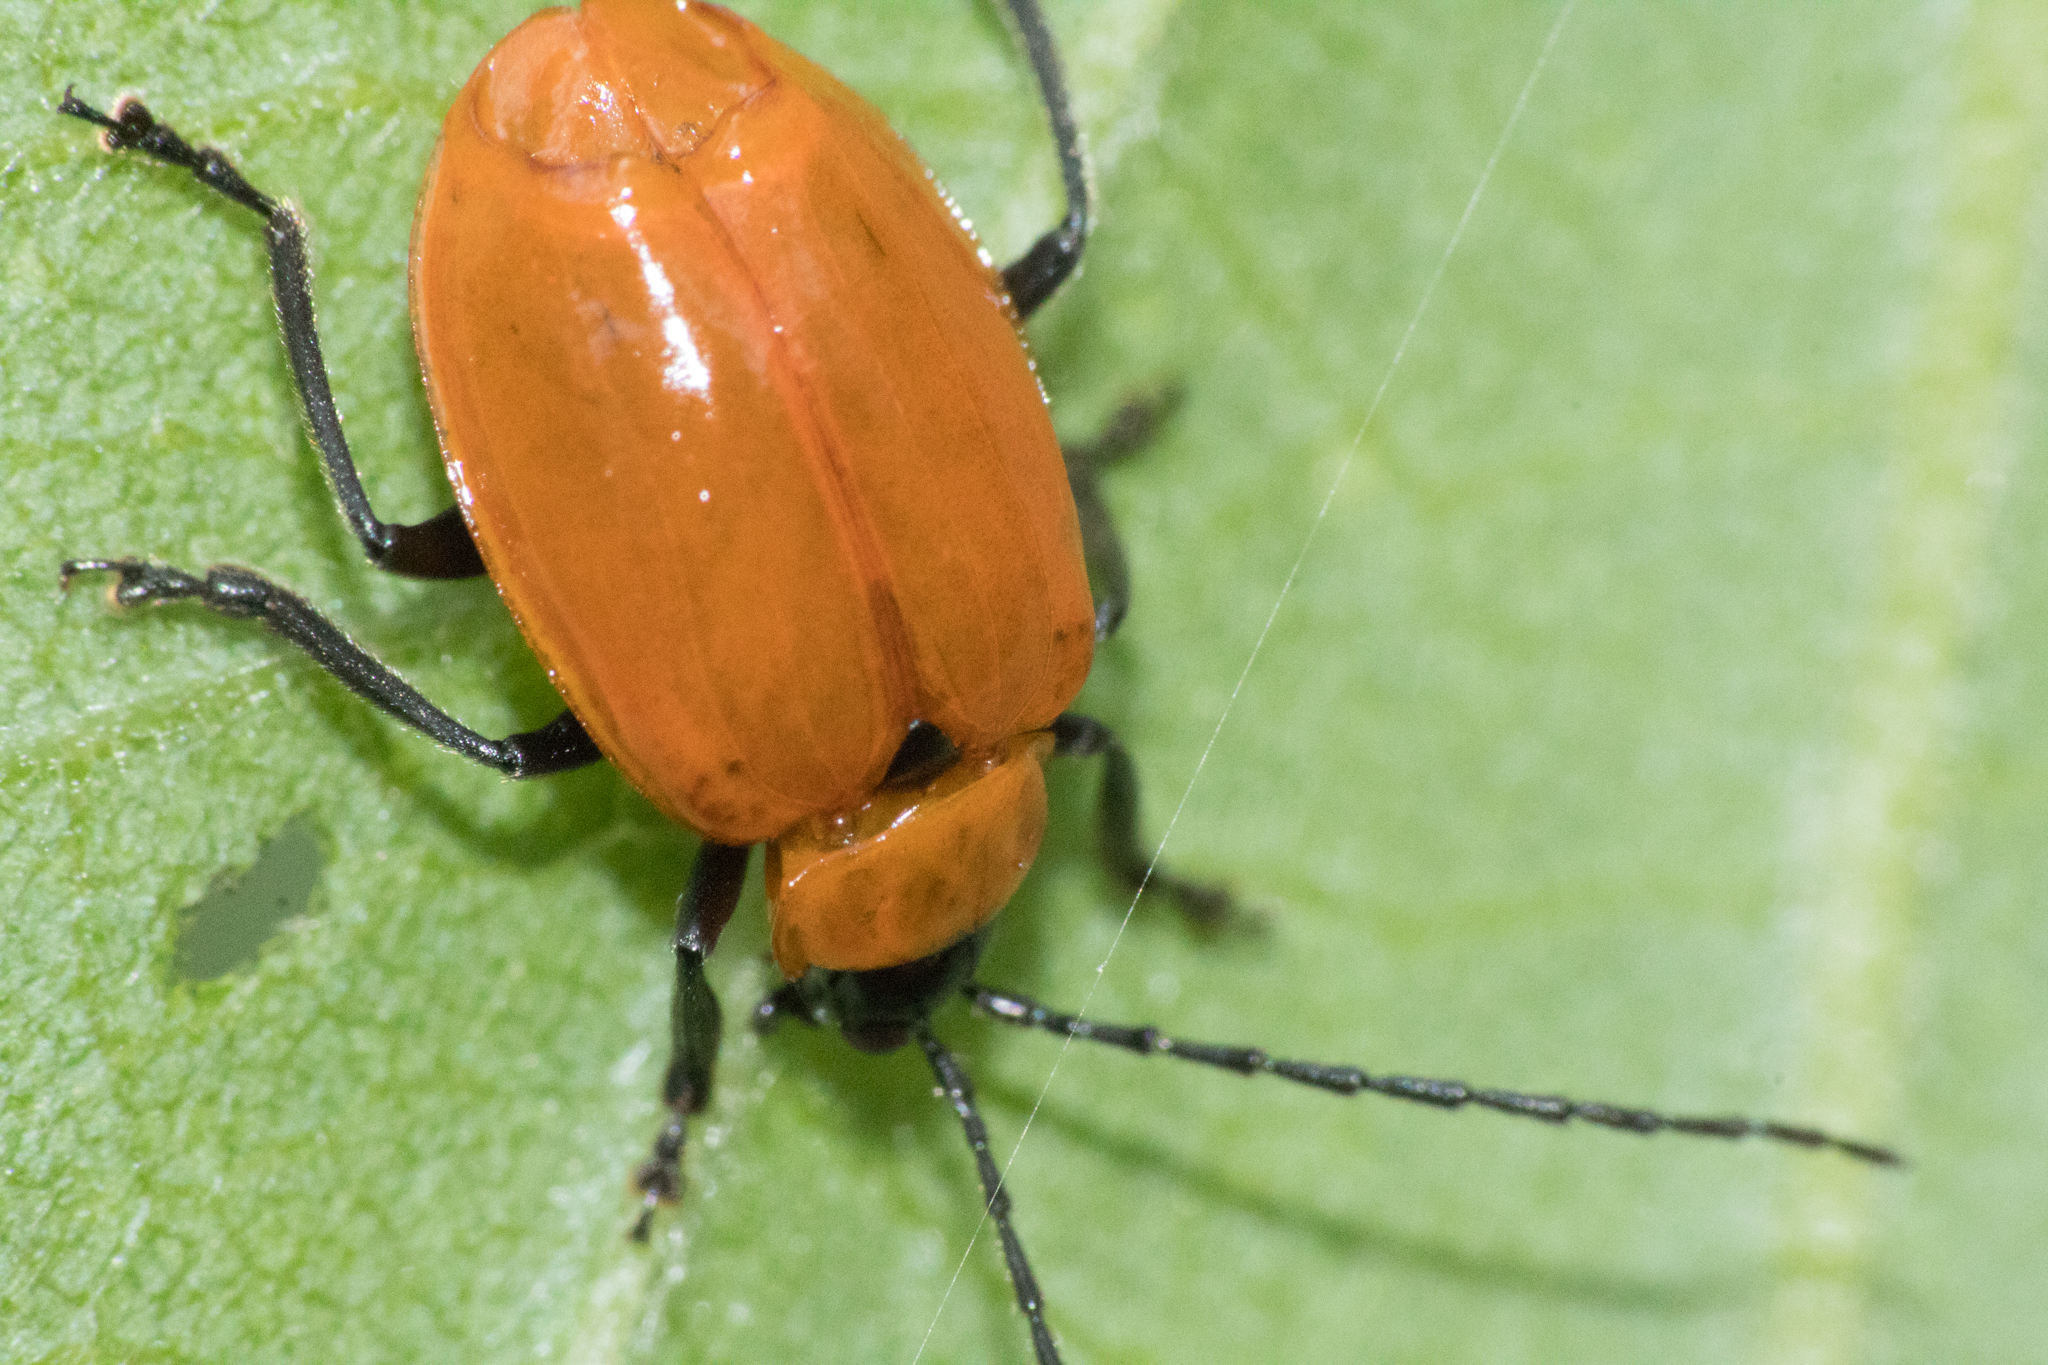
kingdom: Animalia
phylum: Arthropoda
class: Insecta
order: Coleoptera
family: Chrysomelidae
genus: Isotes
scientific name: Isotes
